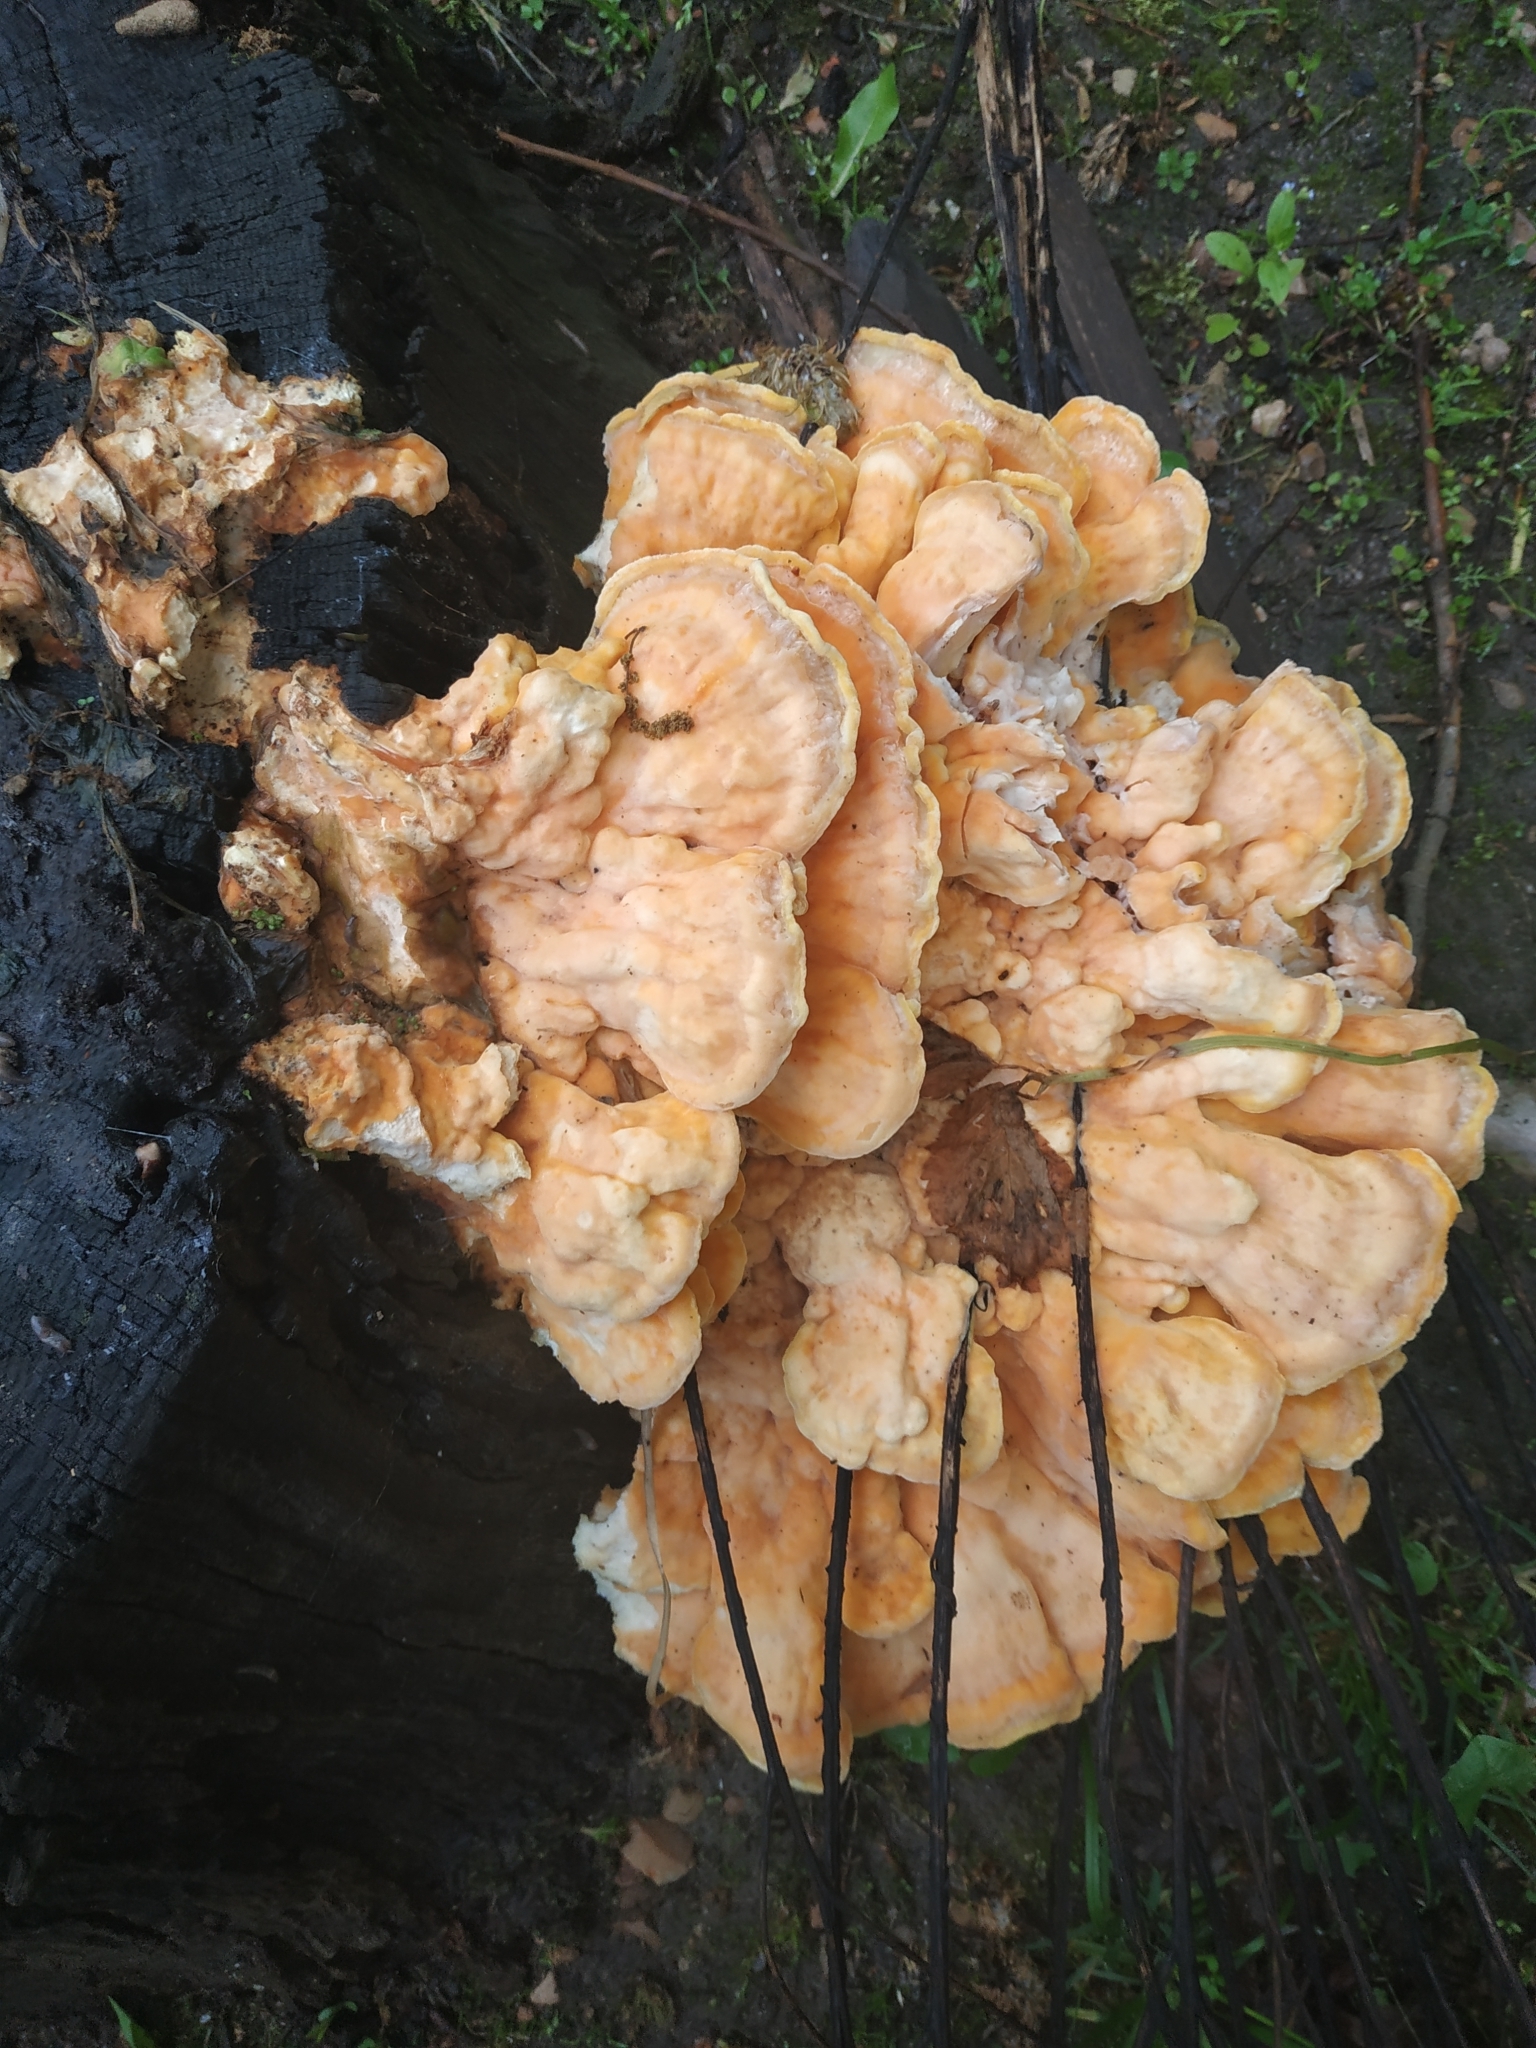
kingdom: Fungi
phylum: Basidiomycota
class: Agaricomycetes
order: Polyporales
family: Laetiporaceae
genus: Laetiporus
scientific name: Laetiporus sulphureus
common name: Chicken of the woods
